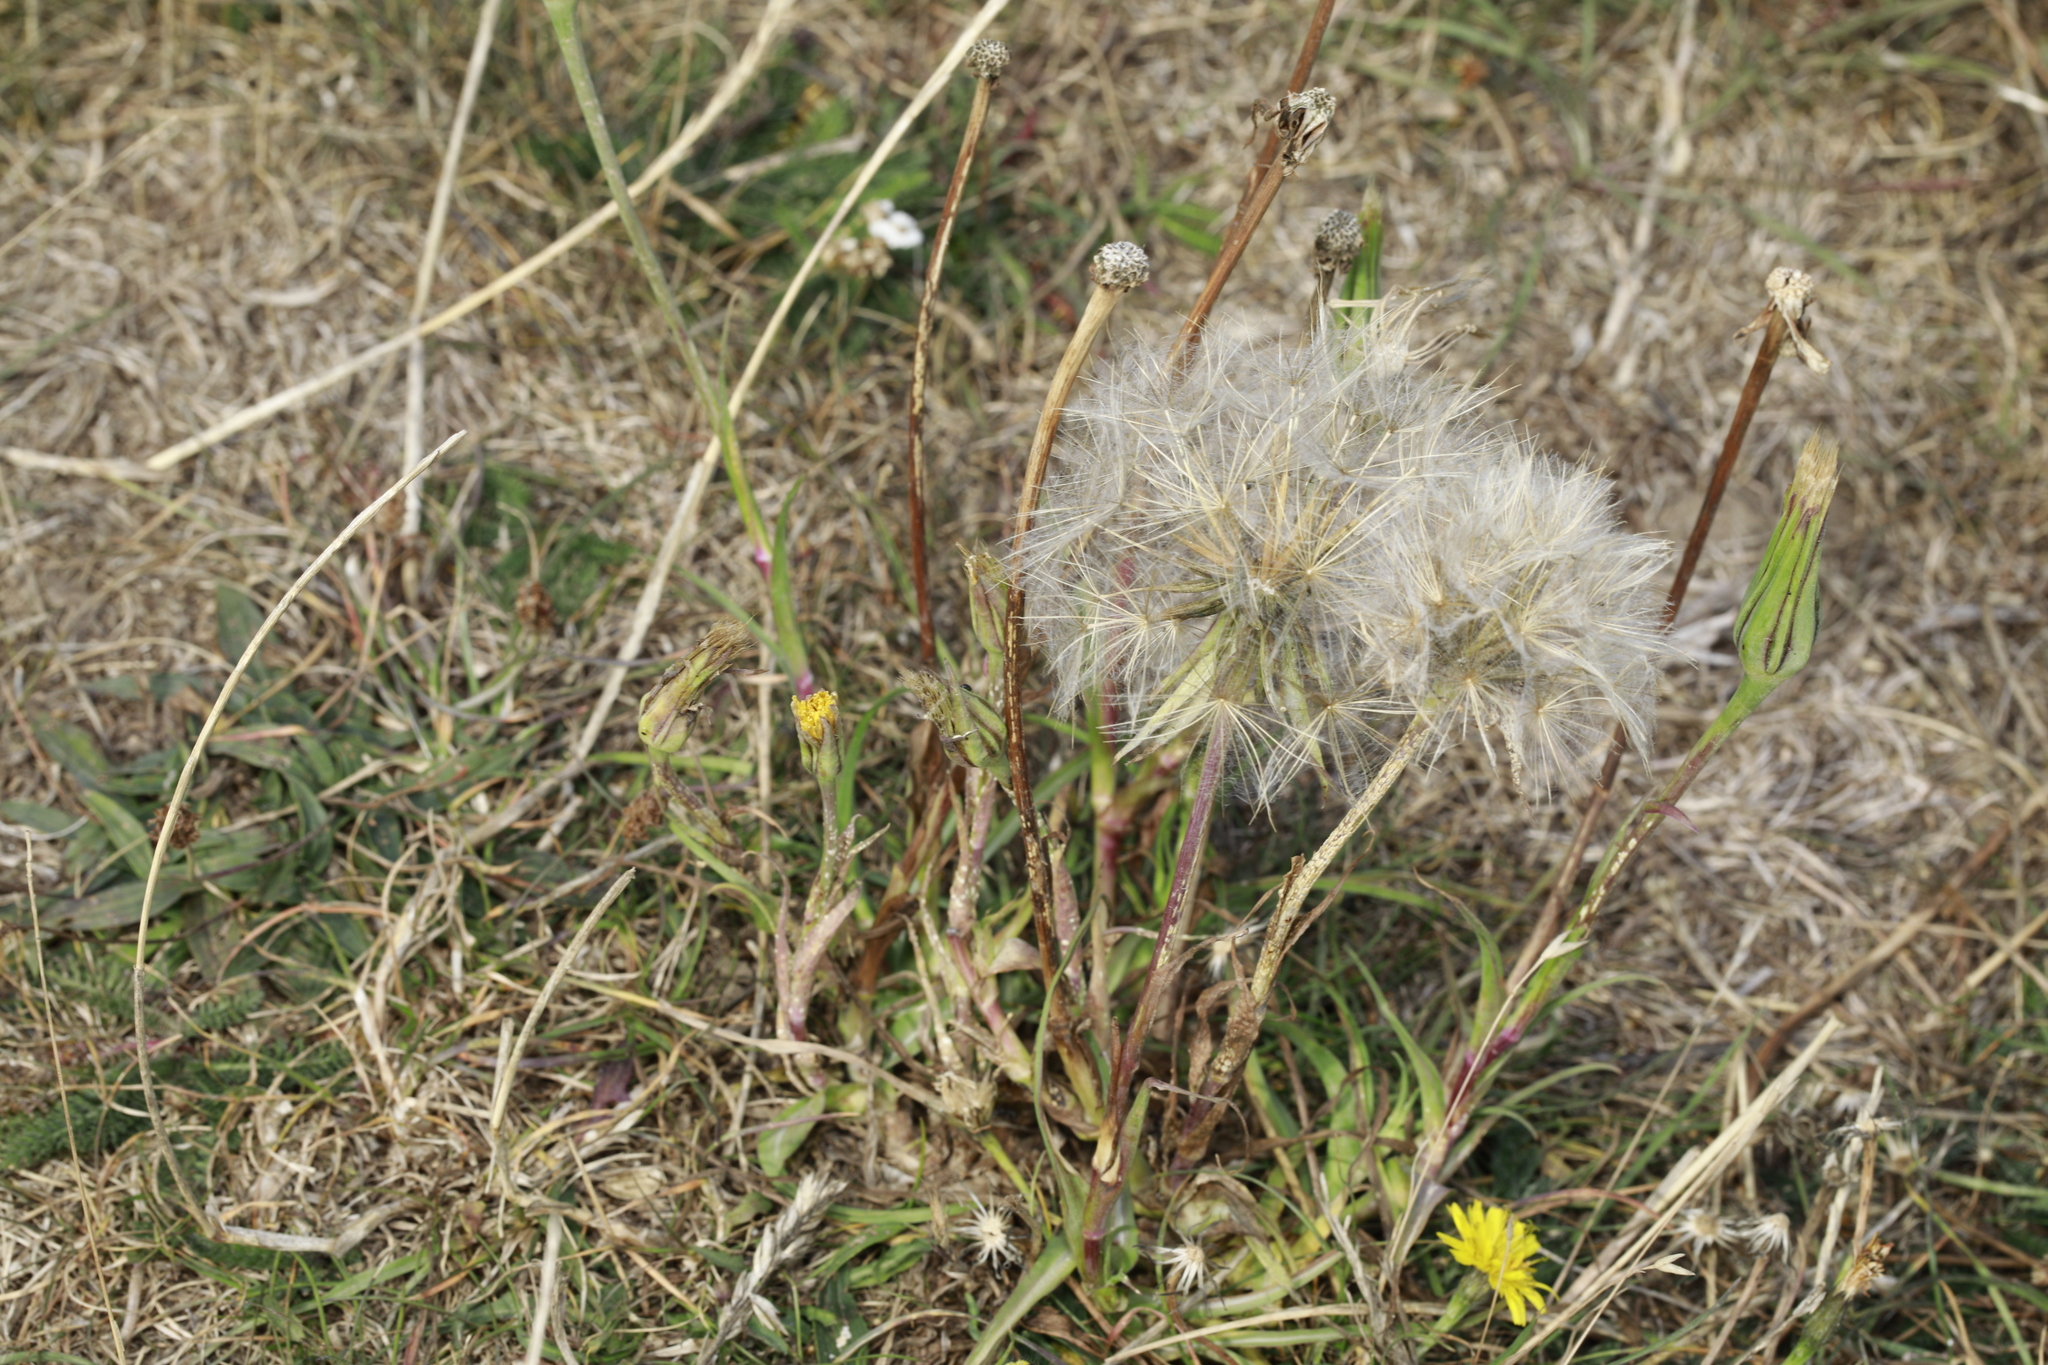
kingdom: Plantae
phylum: Tracheophyta
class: Magnoliopsida
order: Asterales
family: Asteraceae
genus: Tragopogon
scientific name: Tragopogon pratensis
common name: Goat's-beard
